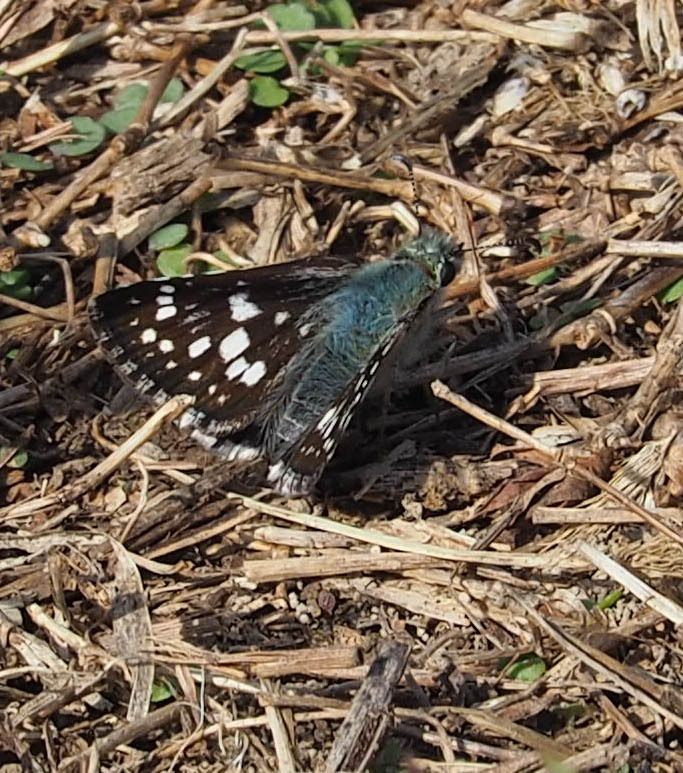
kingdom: Animalia
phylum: Arthropoda
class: Insecta
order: Lepidoptera
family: Hesperiidae
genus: Burnsius
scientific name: Burnsius communis
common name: Common checkered-skipper
